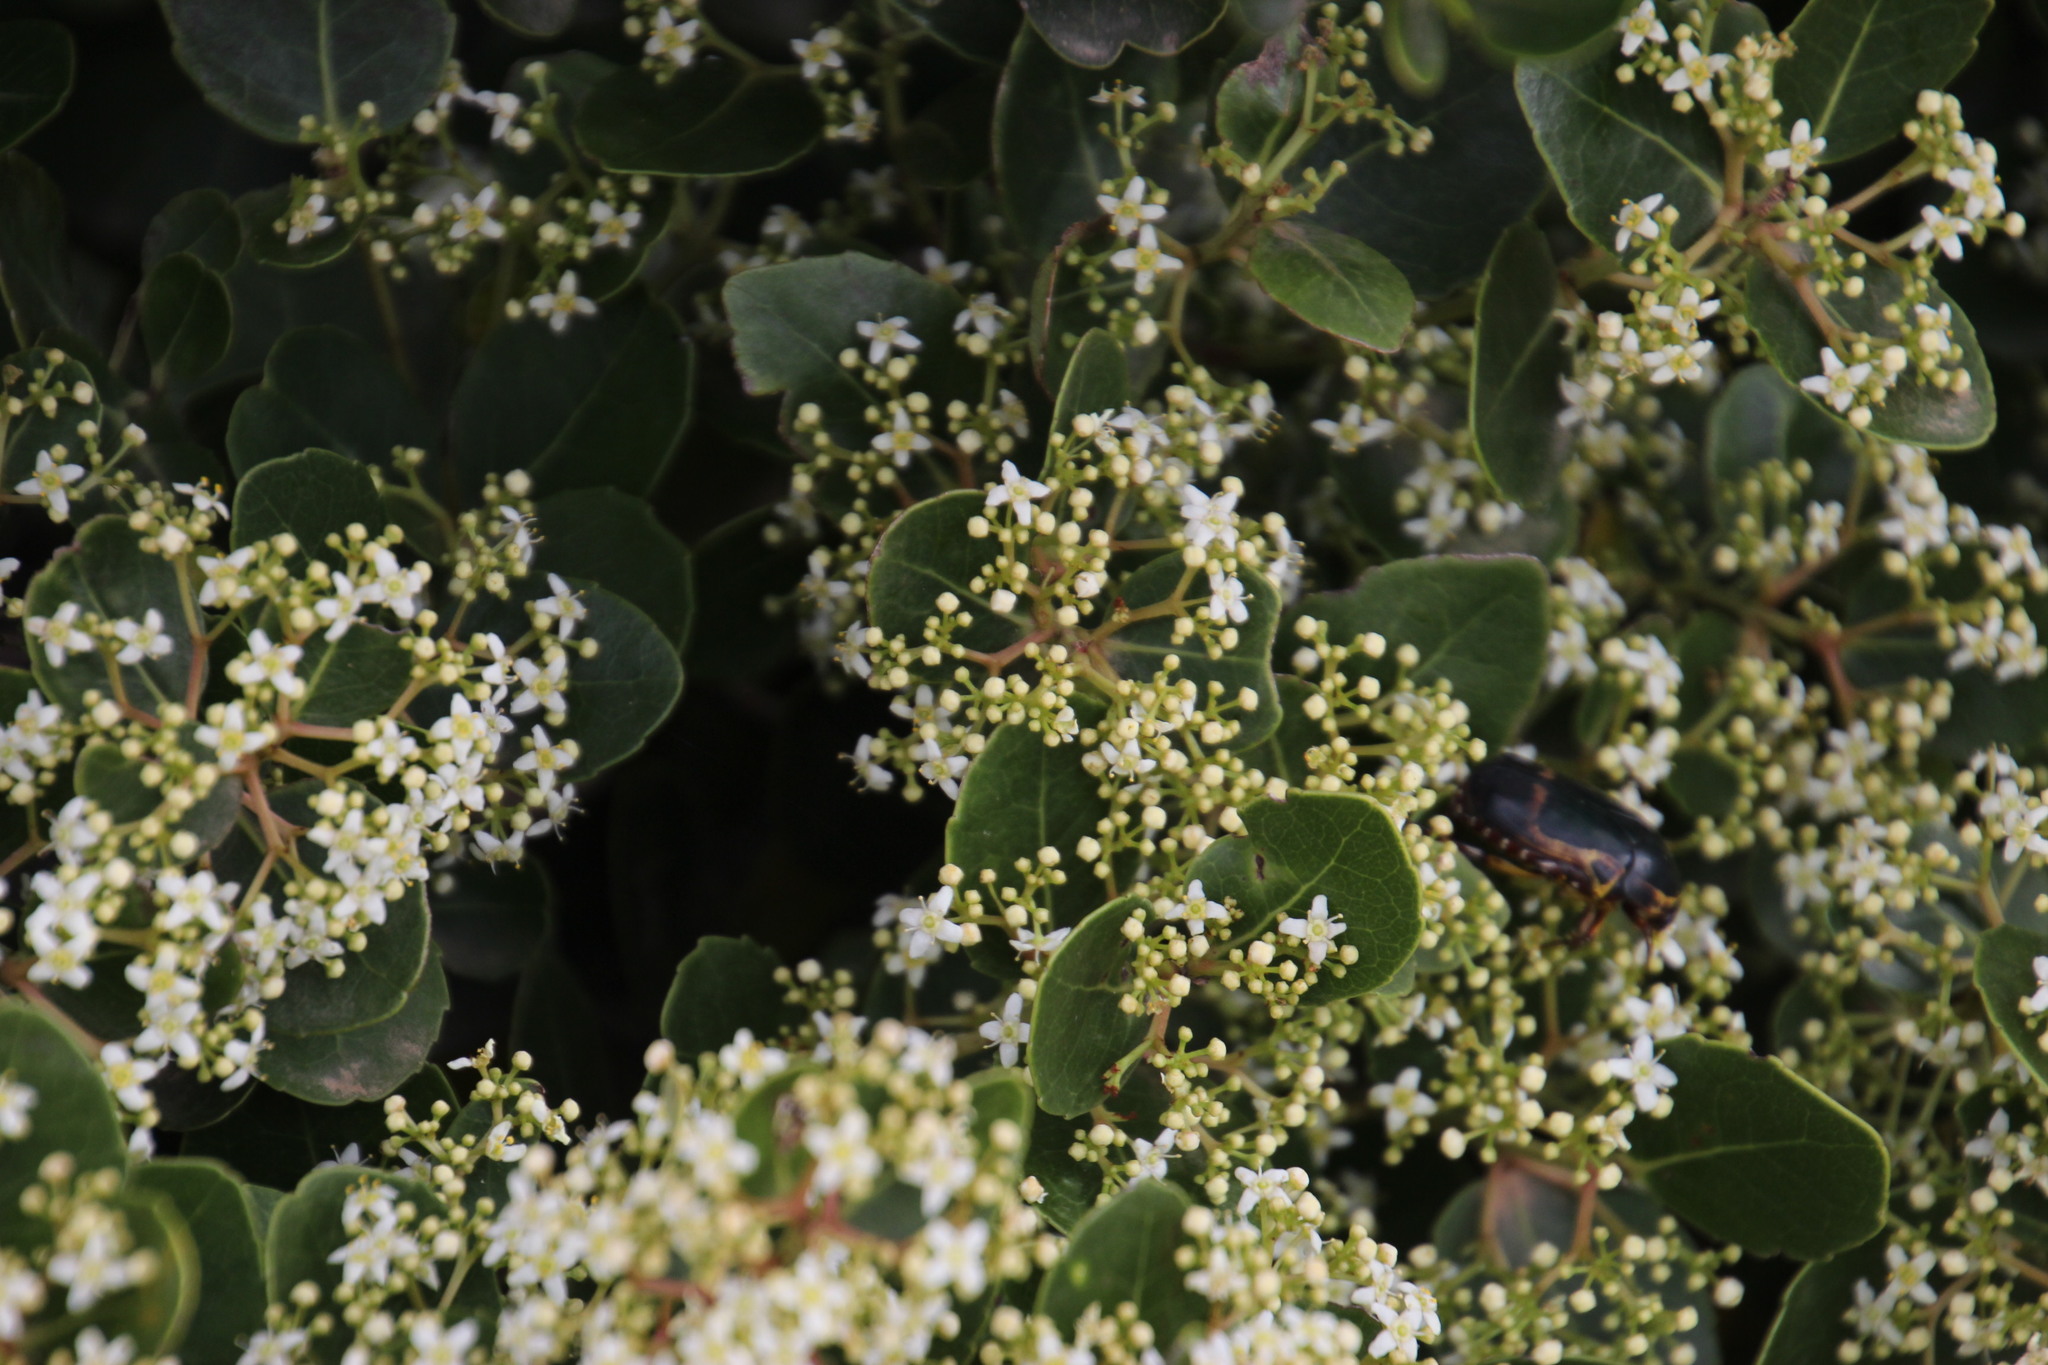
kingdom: Plantae
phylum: Tracheophyta
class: Magnoliopsida
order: Celastrales
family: Celastraceae
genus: Cassine
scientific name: Cassine peragua
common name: Cape saffron
